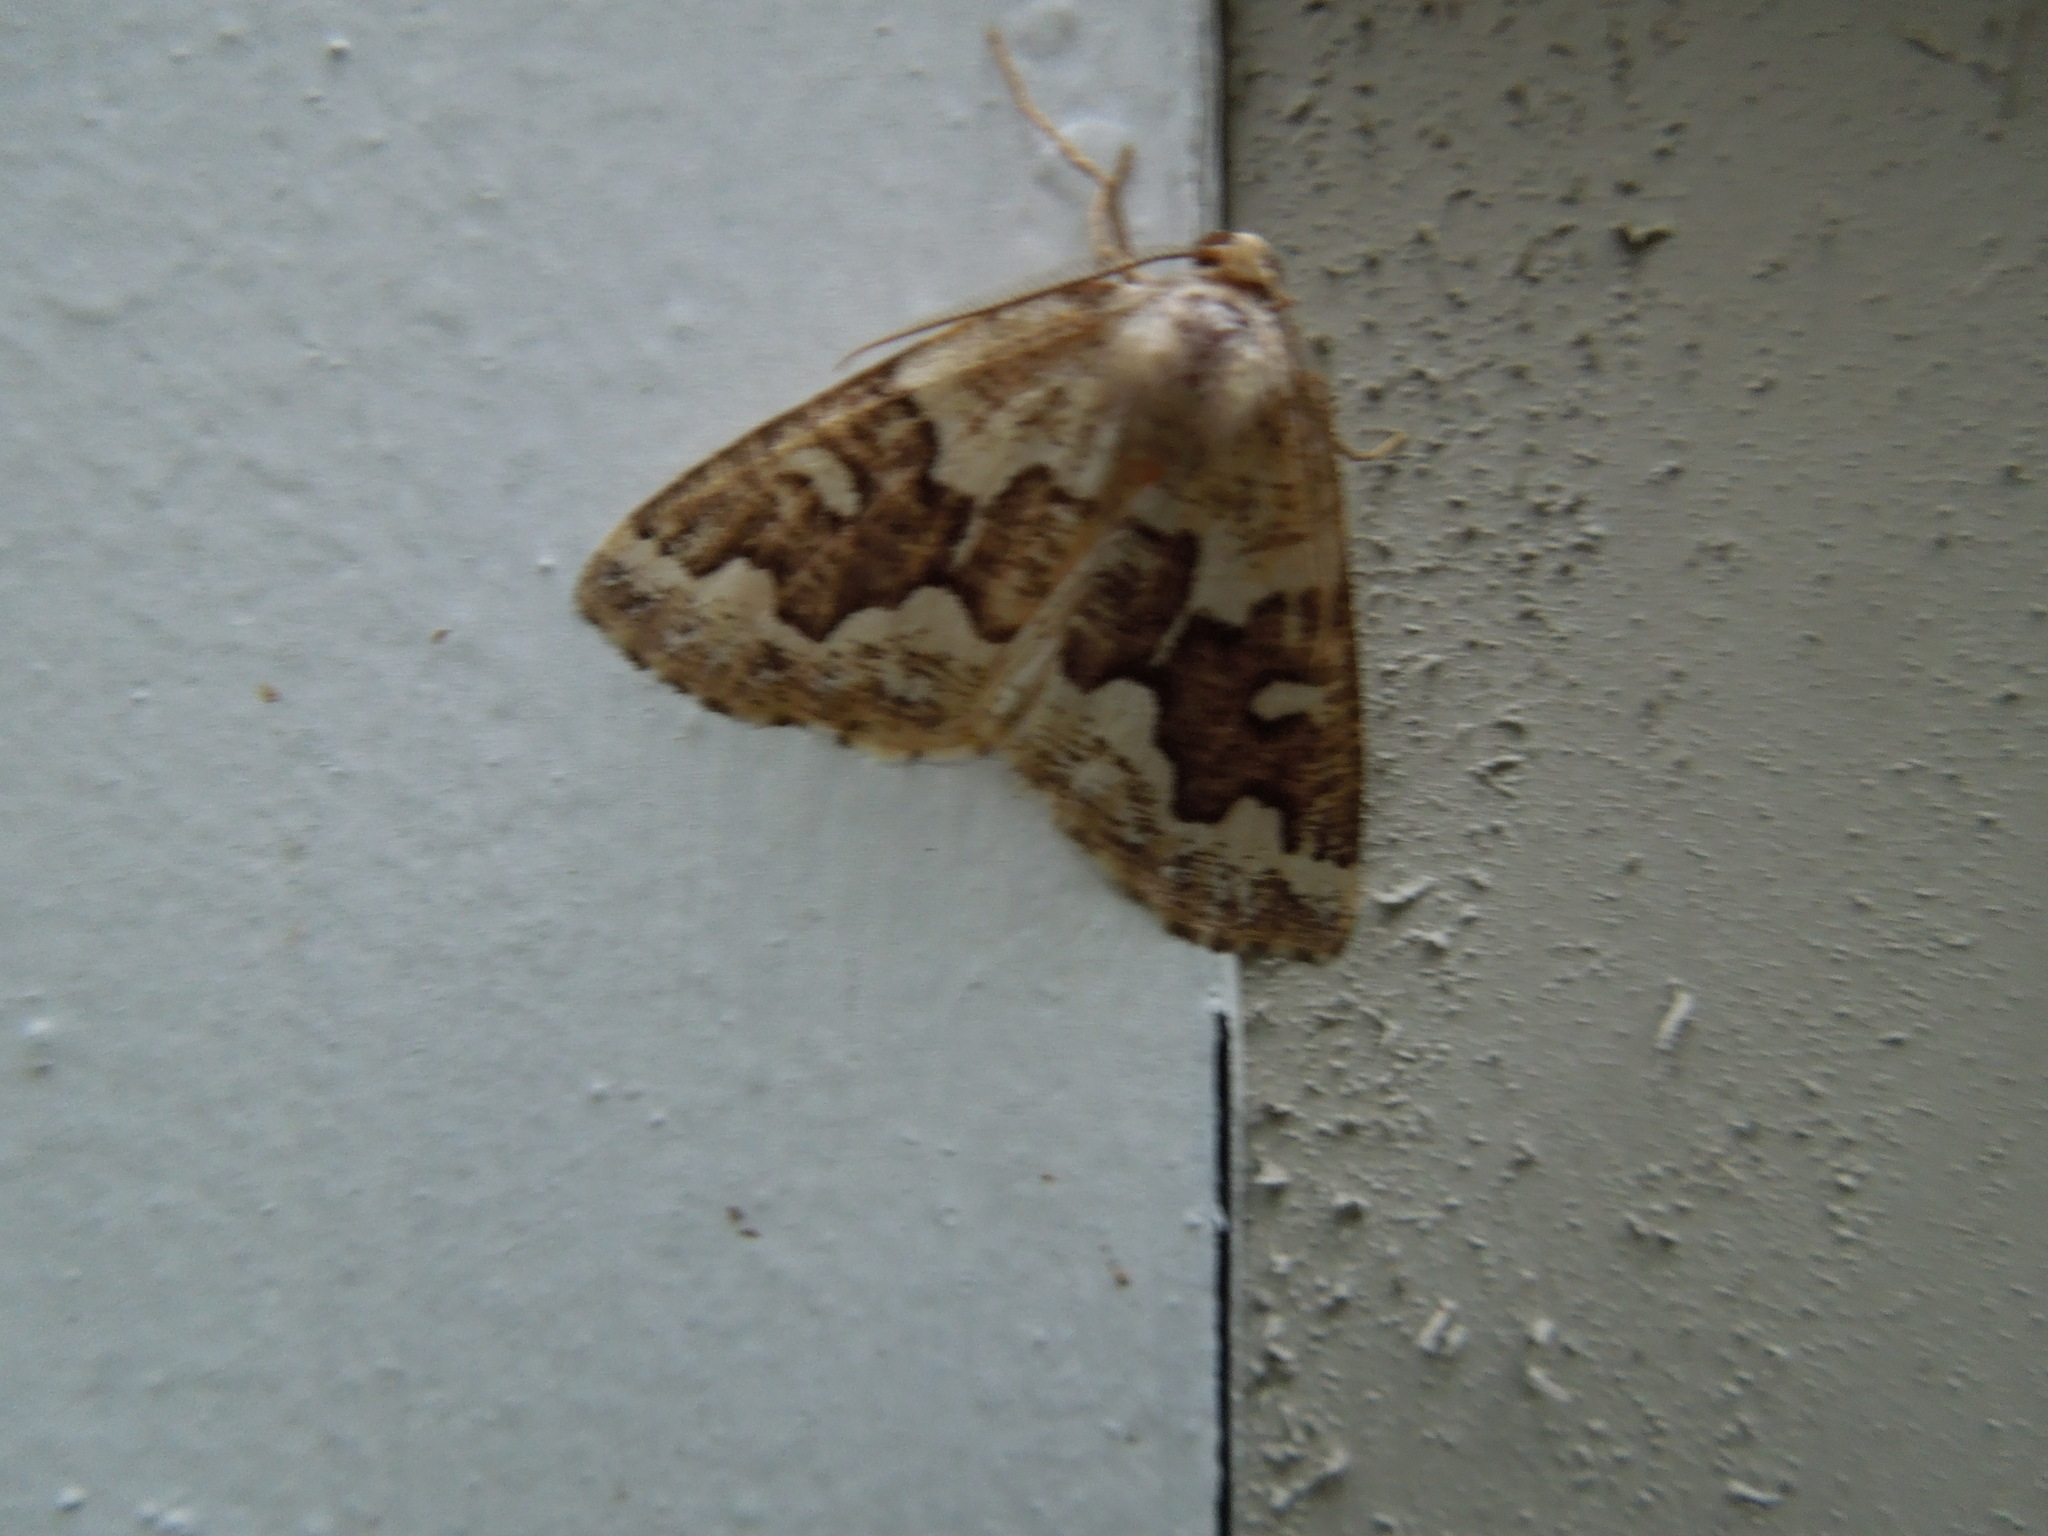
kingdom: Animalia
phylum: Arthropoda
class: Insecta
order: Lepidoptera
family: Geometridae
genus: Caripeta
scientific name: Caripeta divisata
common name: Gray spruce looper
